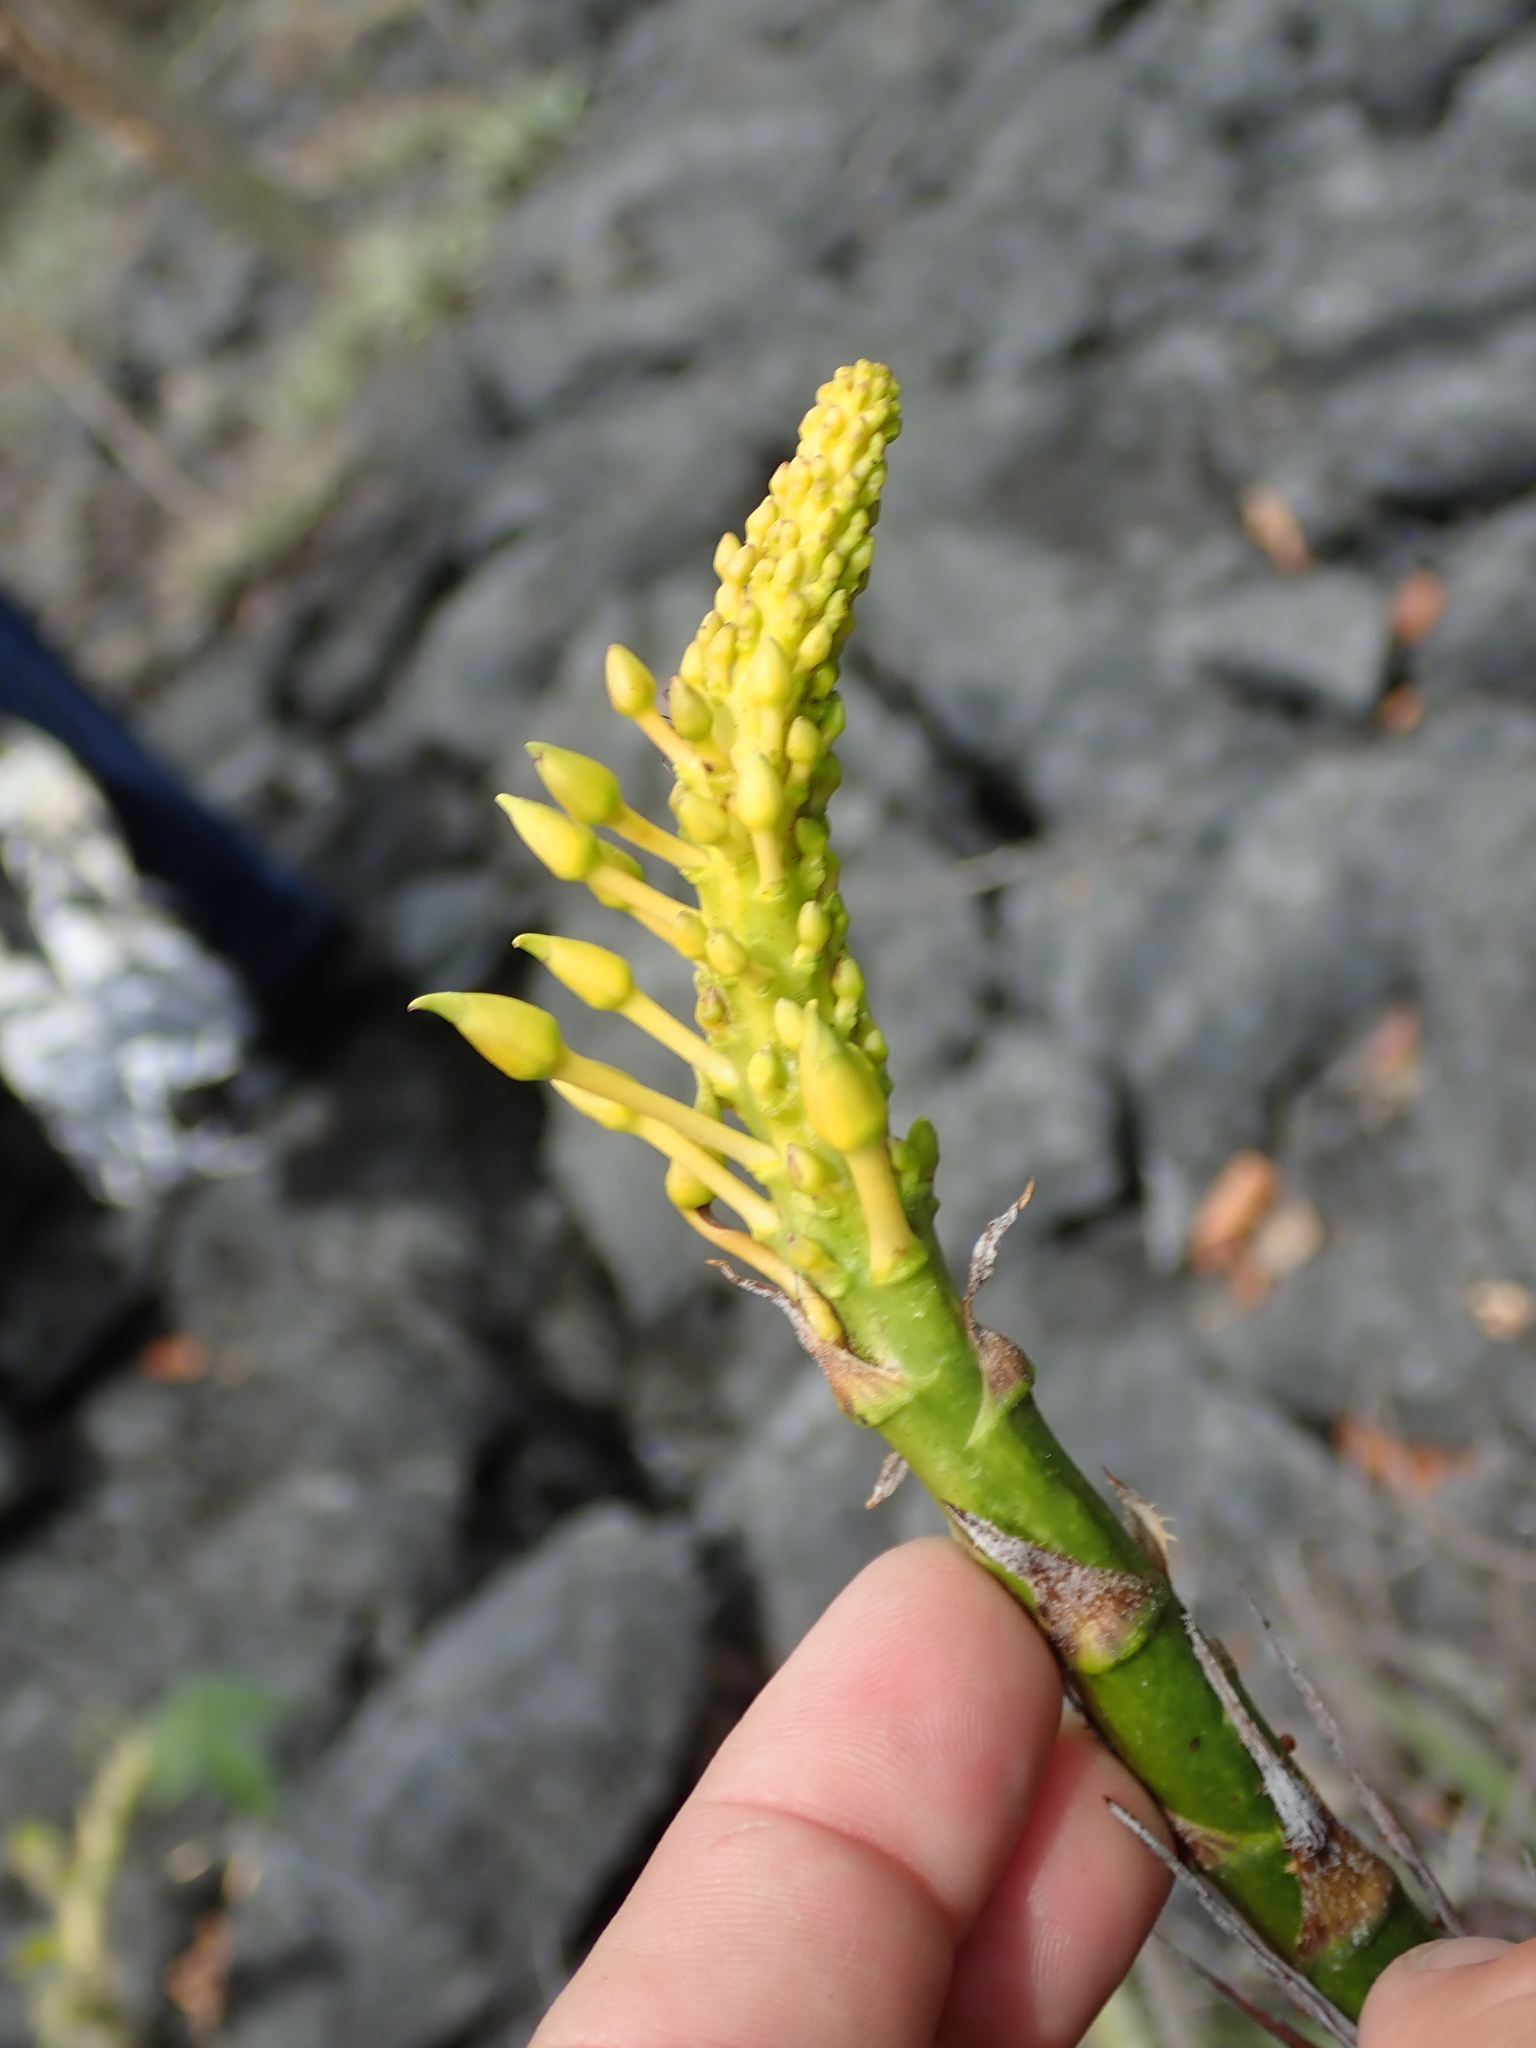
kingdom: Plantae
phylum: Tracheophyta
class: Liliopsida
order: Poales
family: Bromeliaceae
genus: Encholirium
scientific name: Encholirium disjunctum
